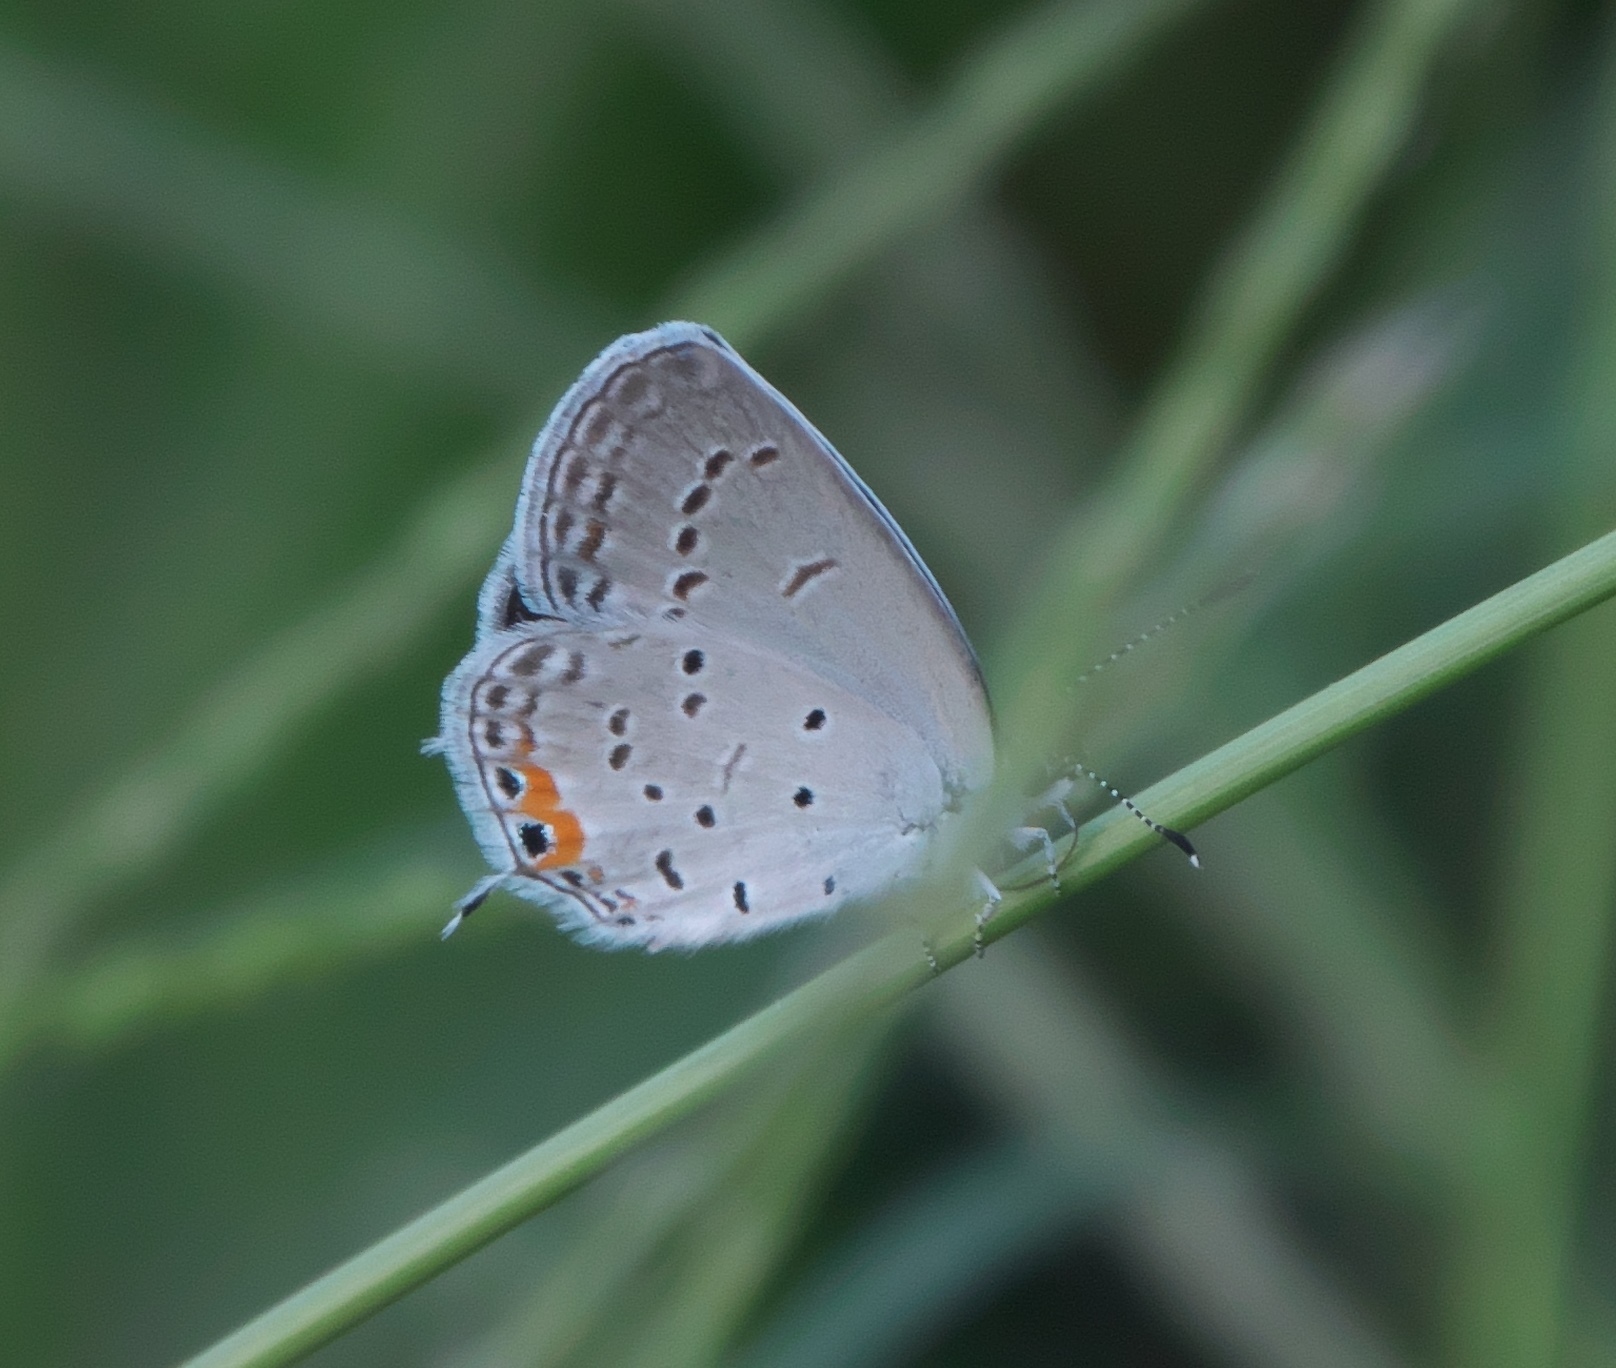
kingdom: Animalia
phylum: Arthropoda
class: Insecta
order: Lepidoptera
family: Lycaenidae
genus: Elkalyce
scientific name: Elkalyce comyntas
